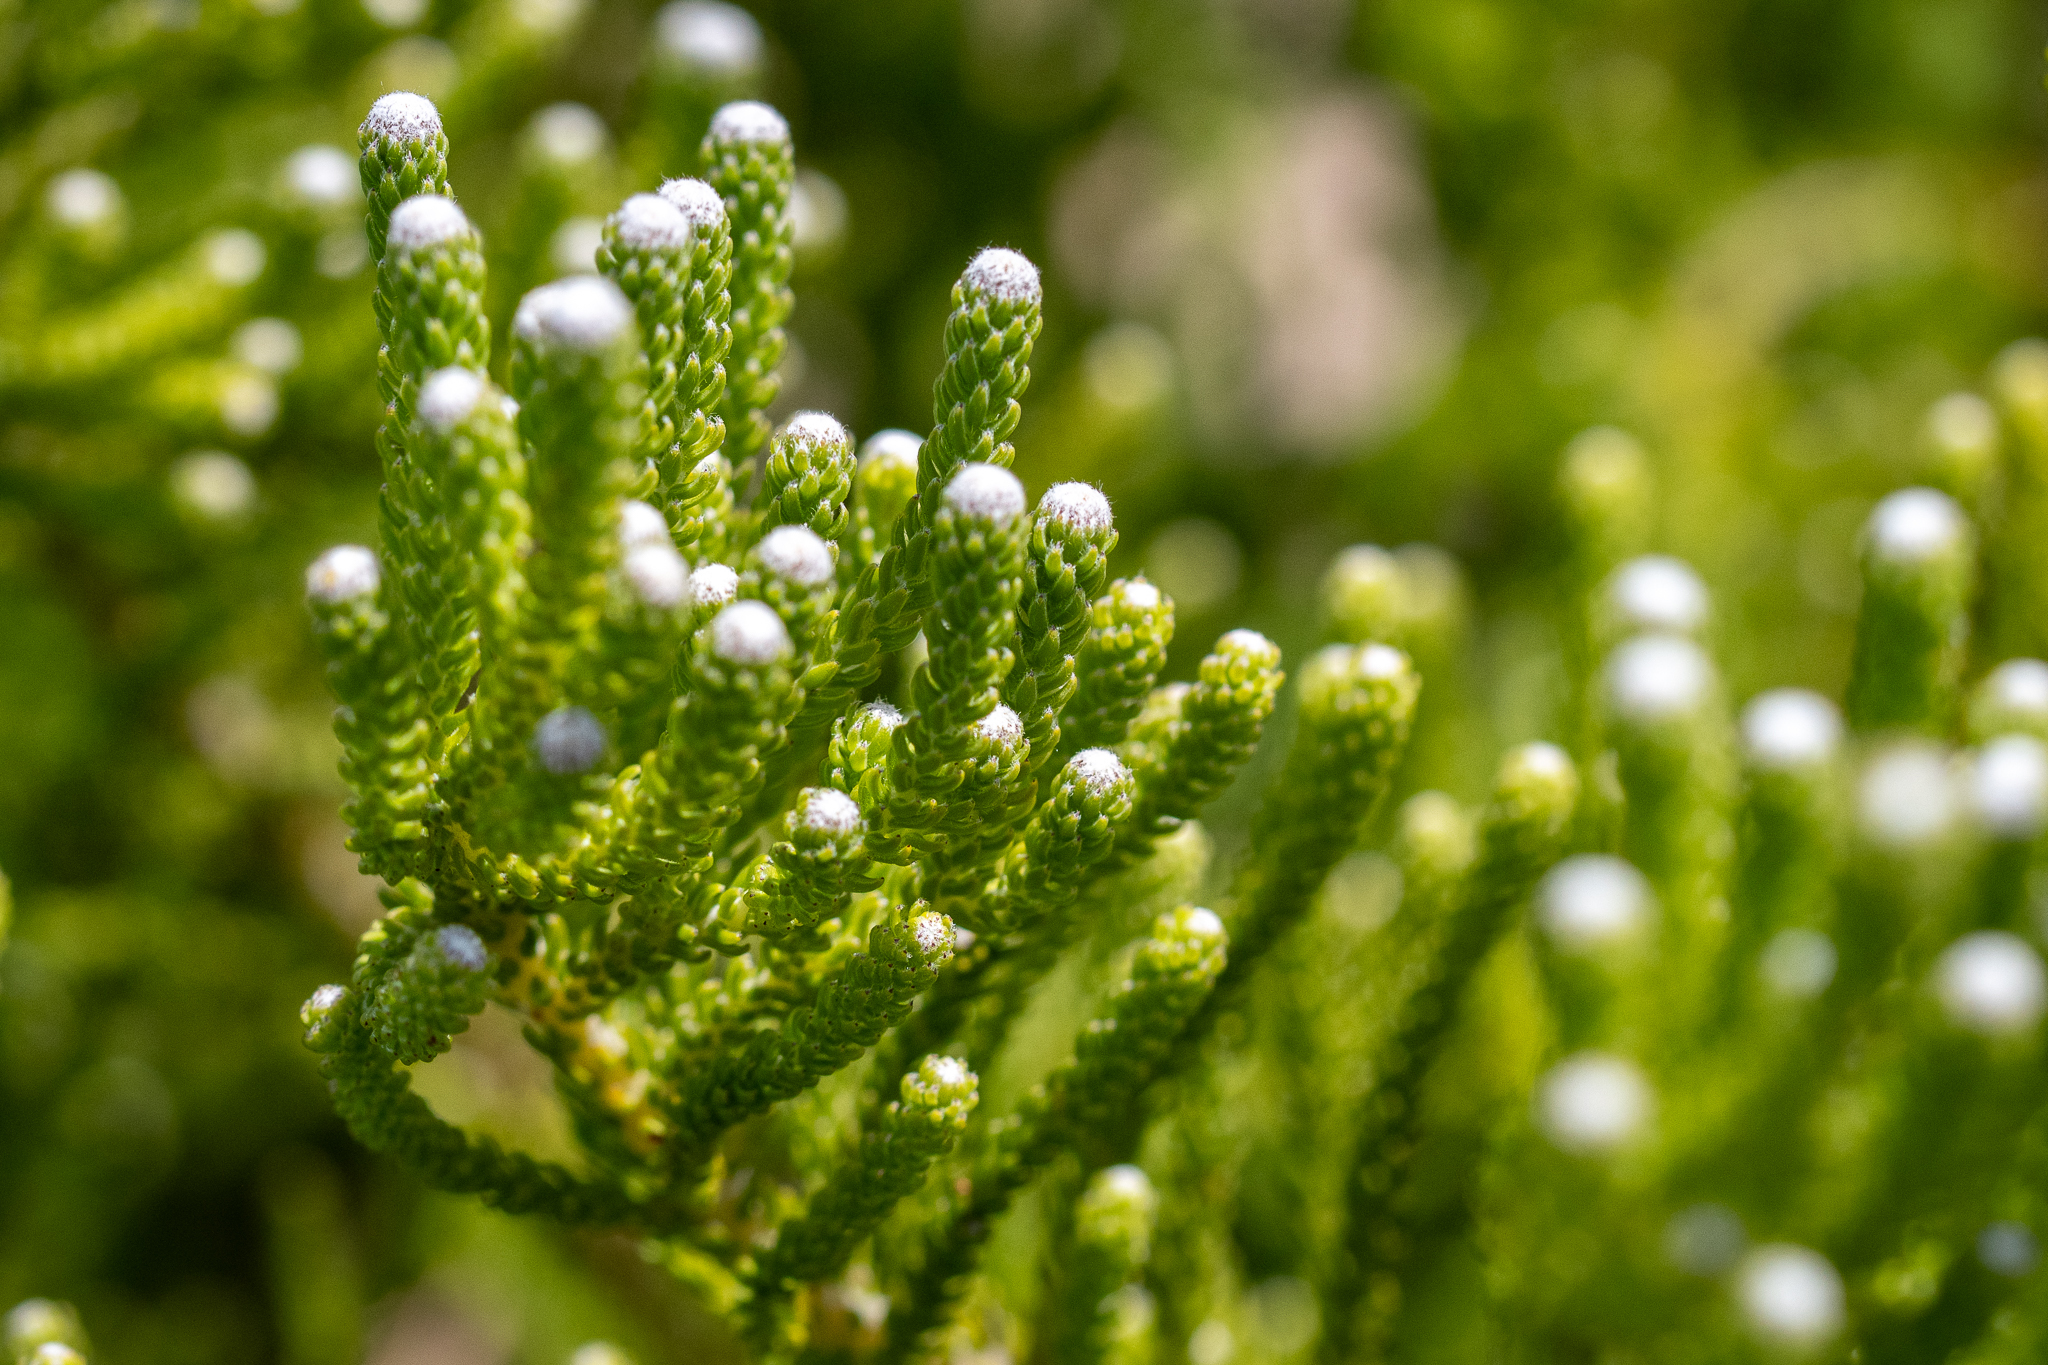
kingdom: Plantae
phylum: Tracheophyta
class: Magnoliopsida
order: Bruniales
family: Bruniaceae
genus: Brunia
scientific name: Brunia noduliflora
